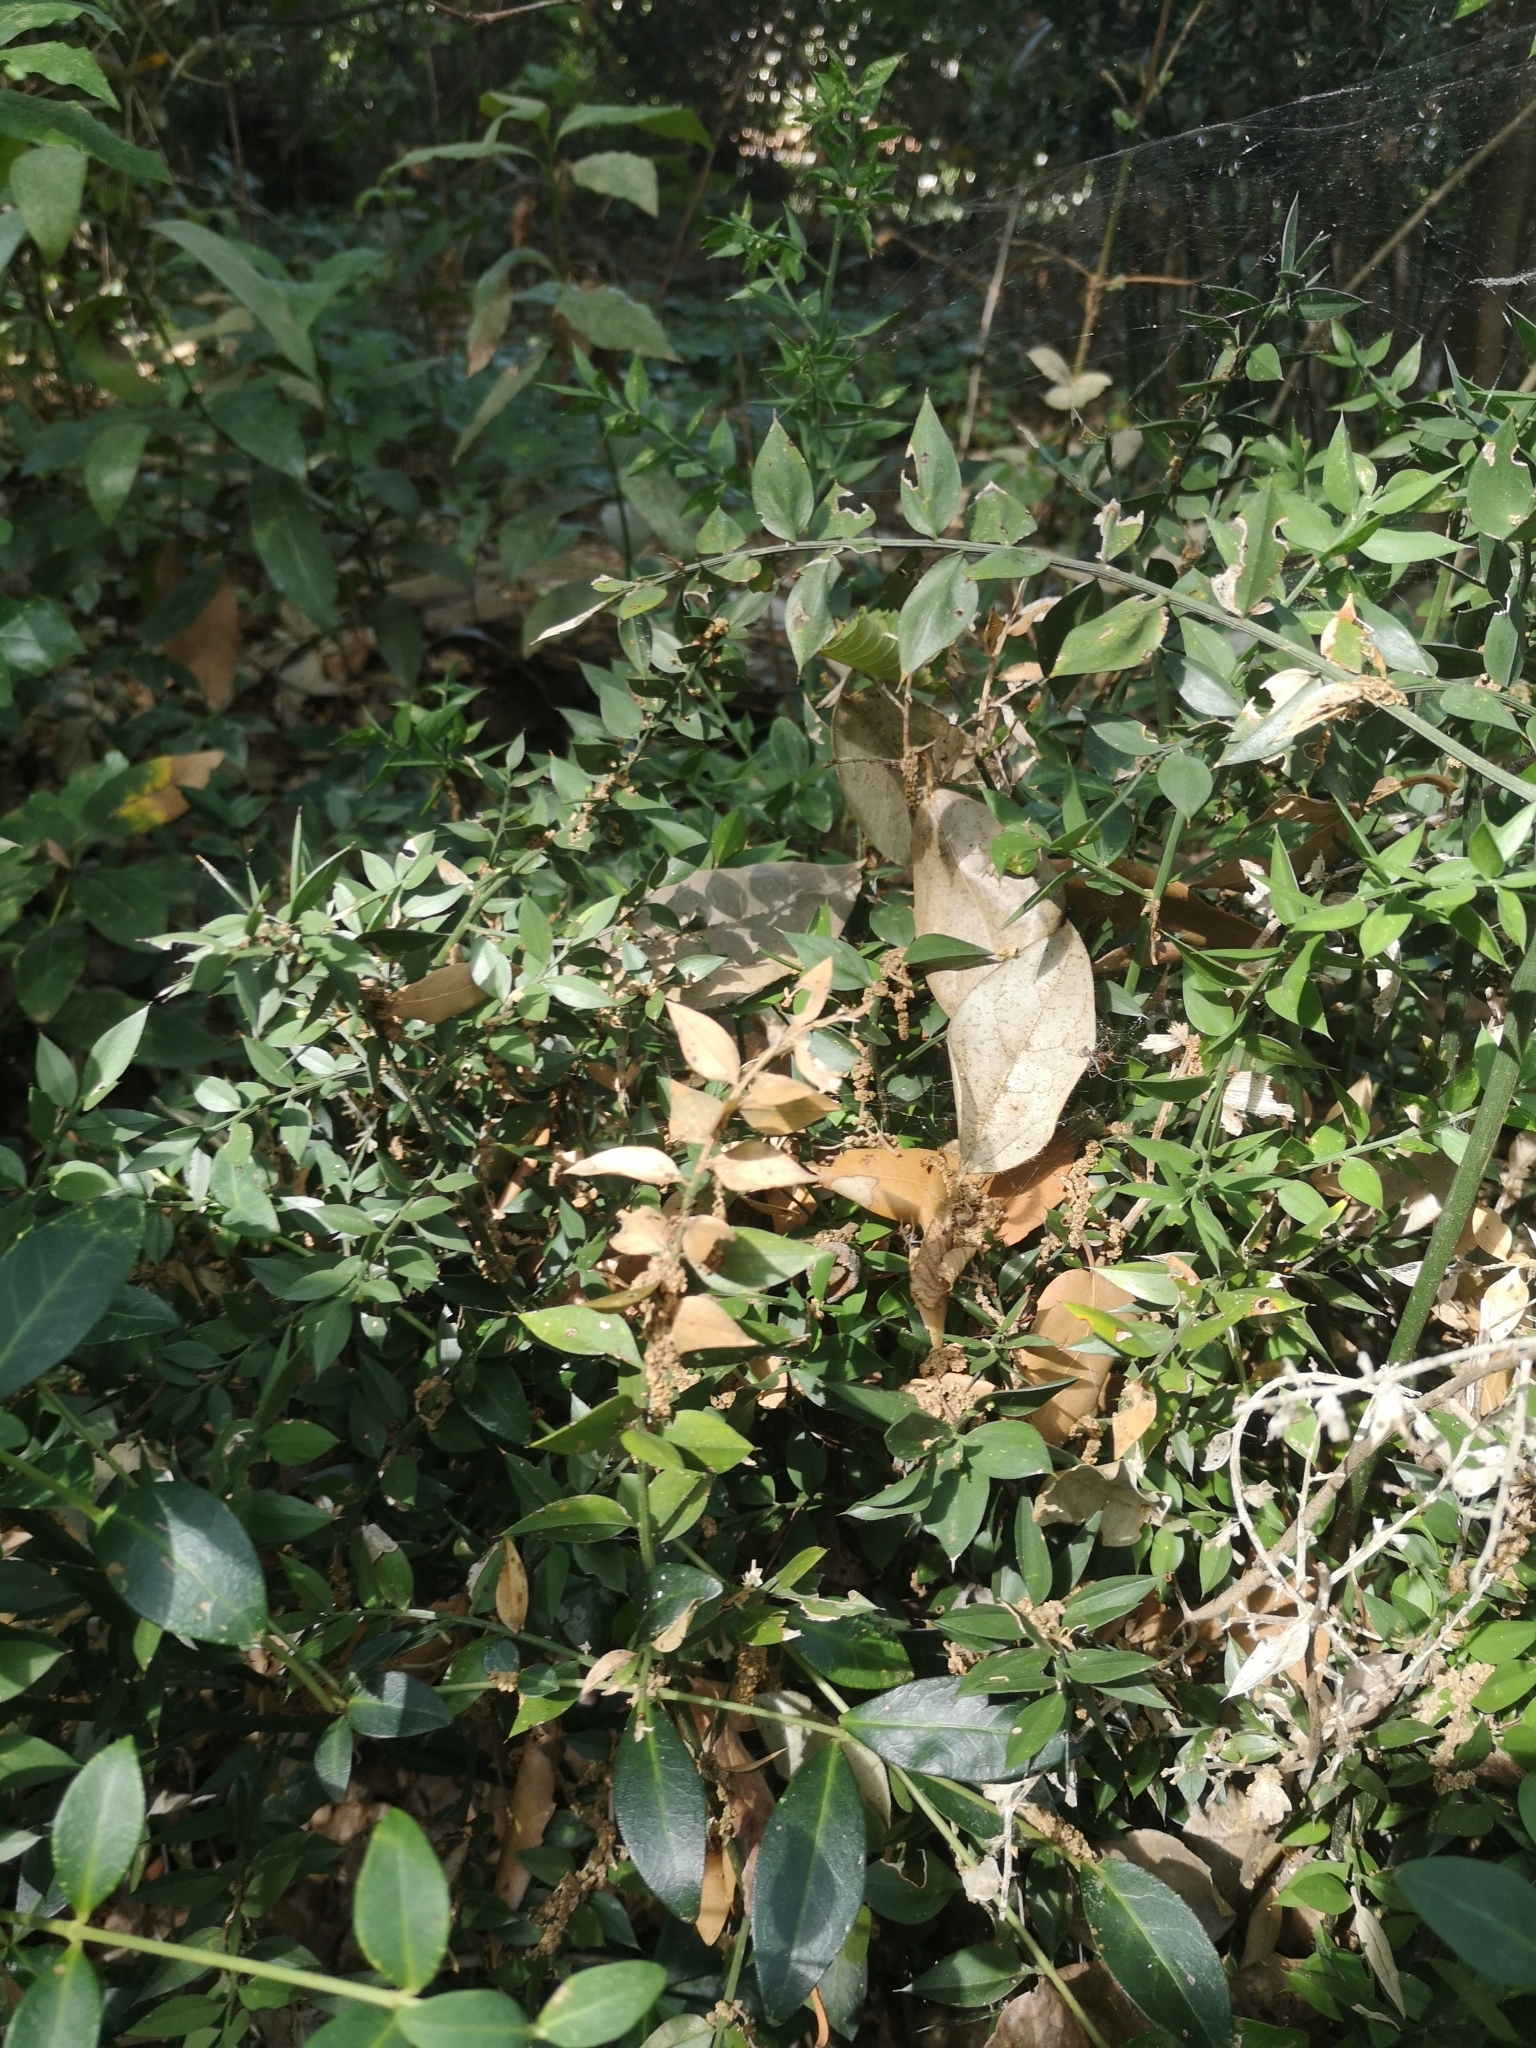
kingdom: Plantae
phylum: Tracheophyta
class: Liliopsida
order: Asparagales
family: Asparagaceae
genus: Ruscus
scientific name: Ruscus aculeatus
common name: Butcher's-broom
